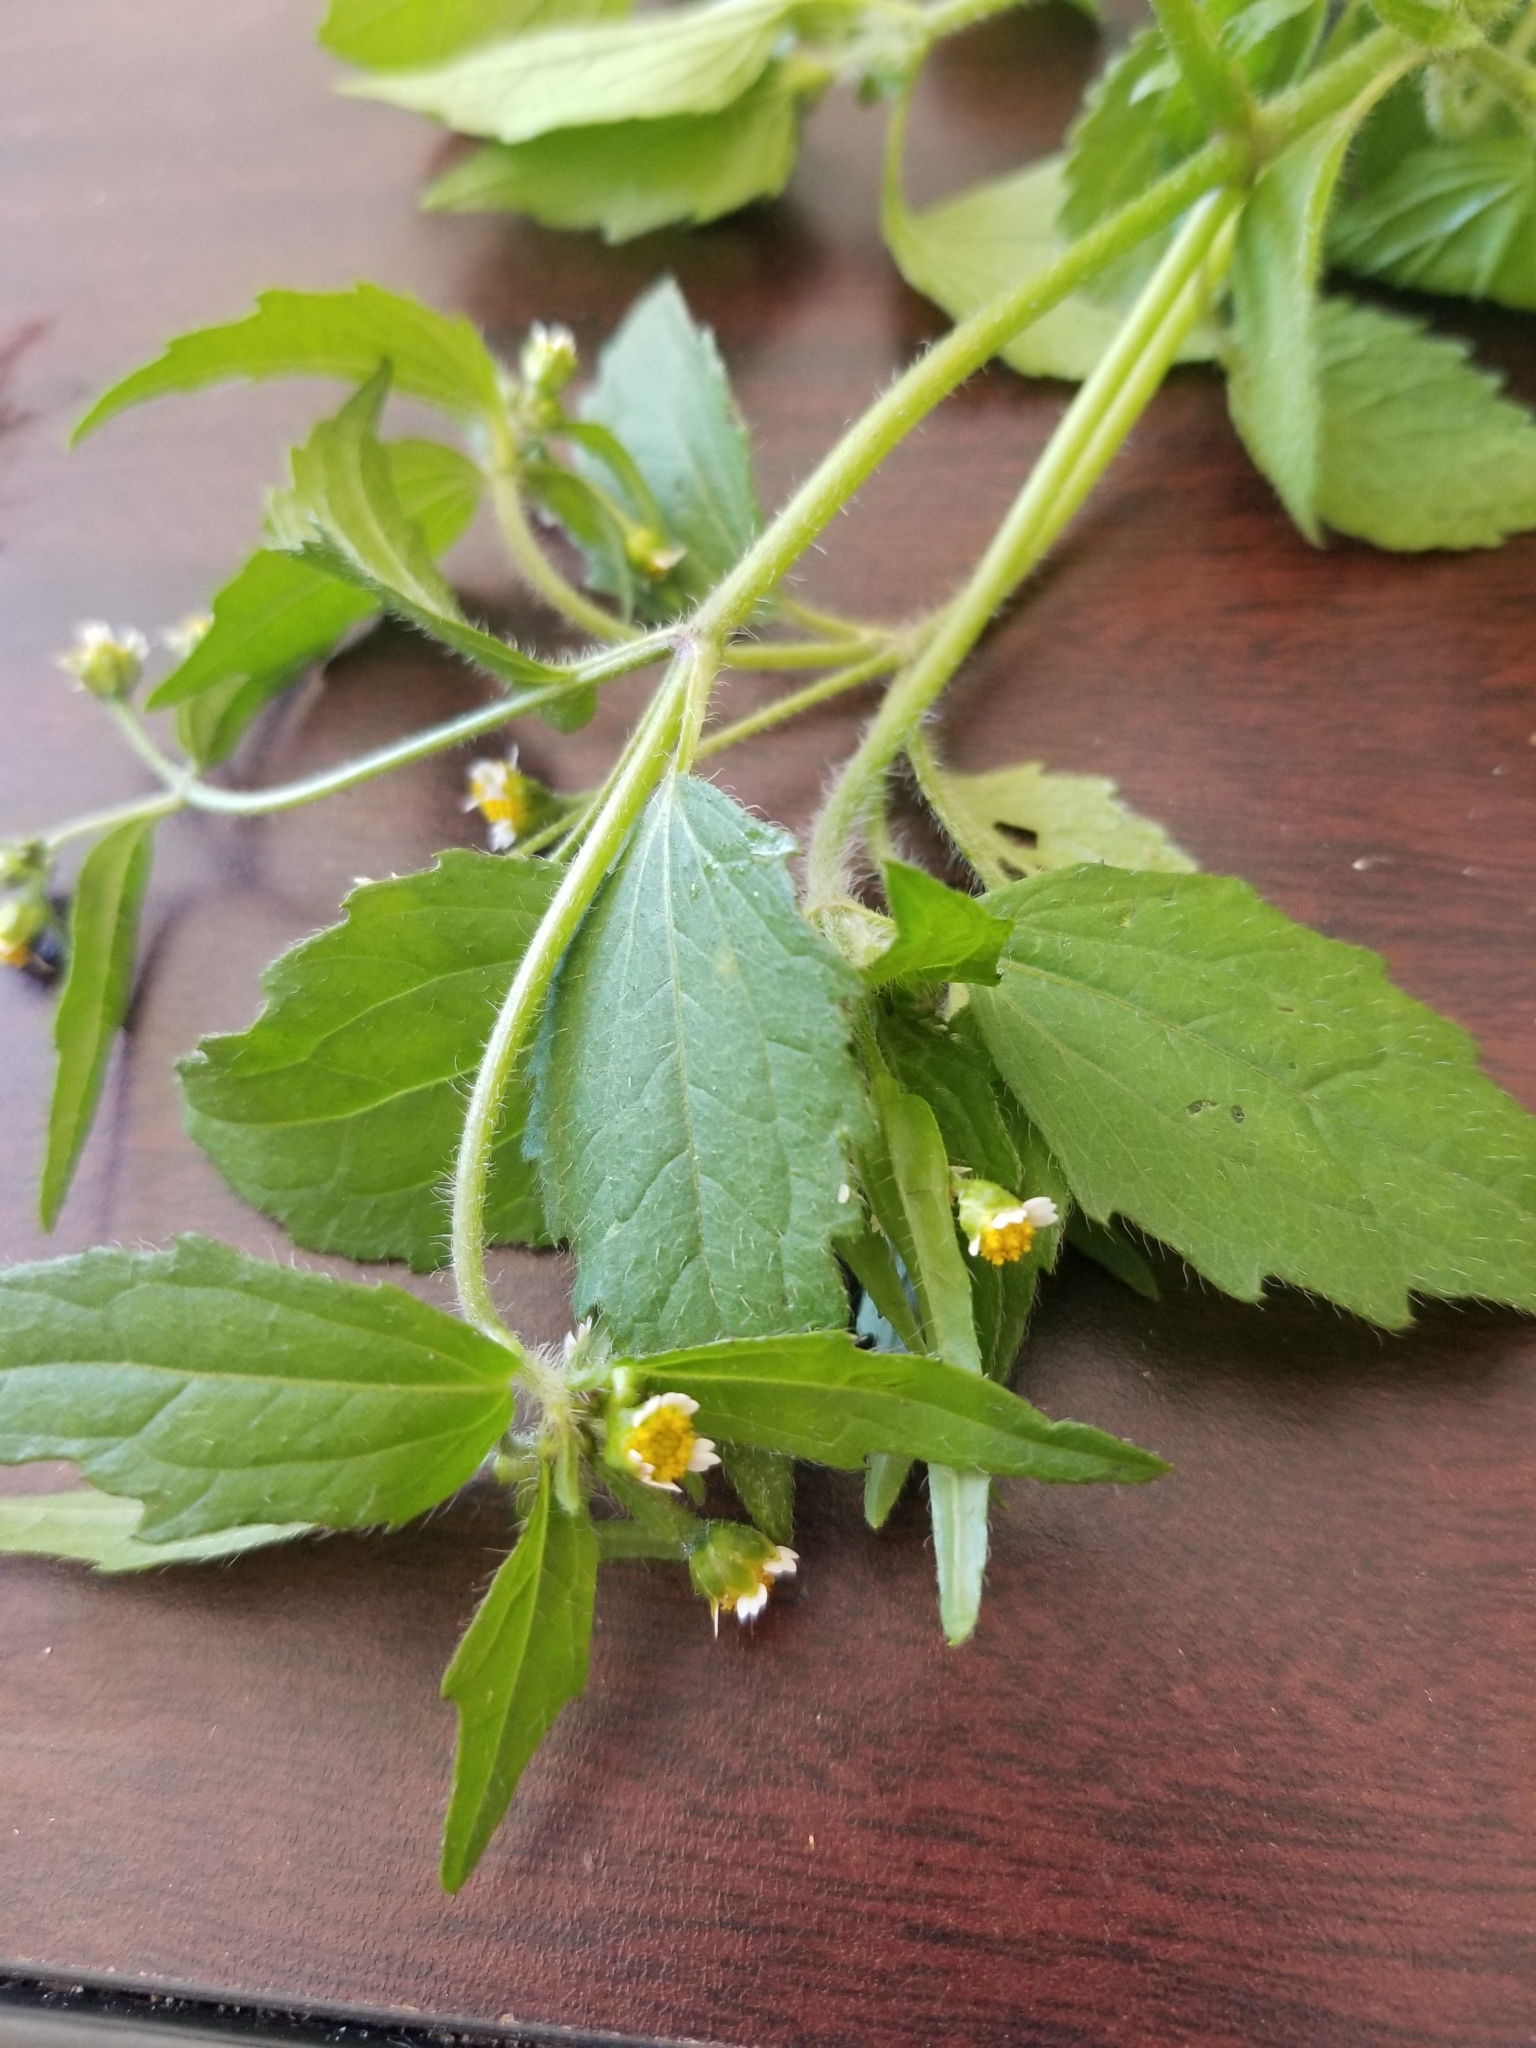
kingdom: Plantae
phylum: Tracheophyta
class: Magnoliopsida
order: Asterales
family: Asteraceae
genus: Galinsoga
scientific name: Galinsoga quadriradiata
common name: Shaggy soldier
